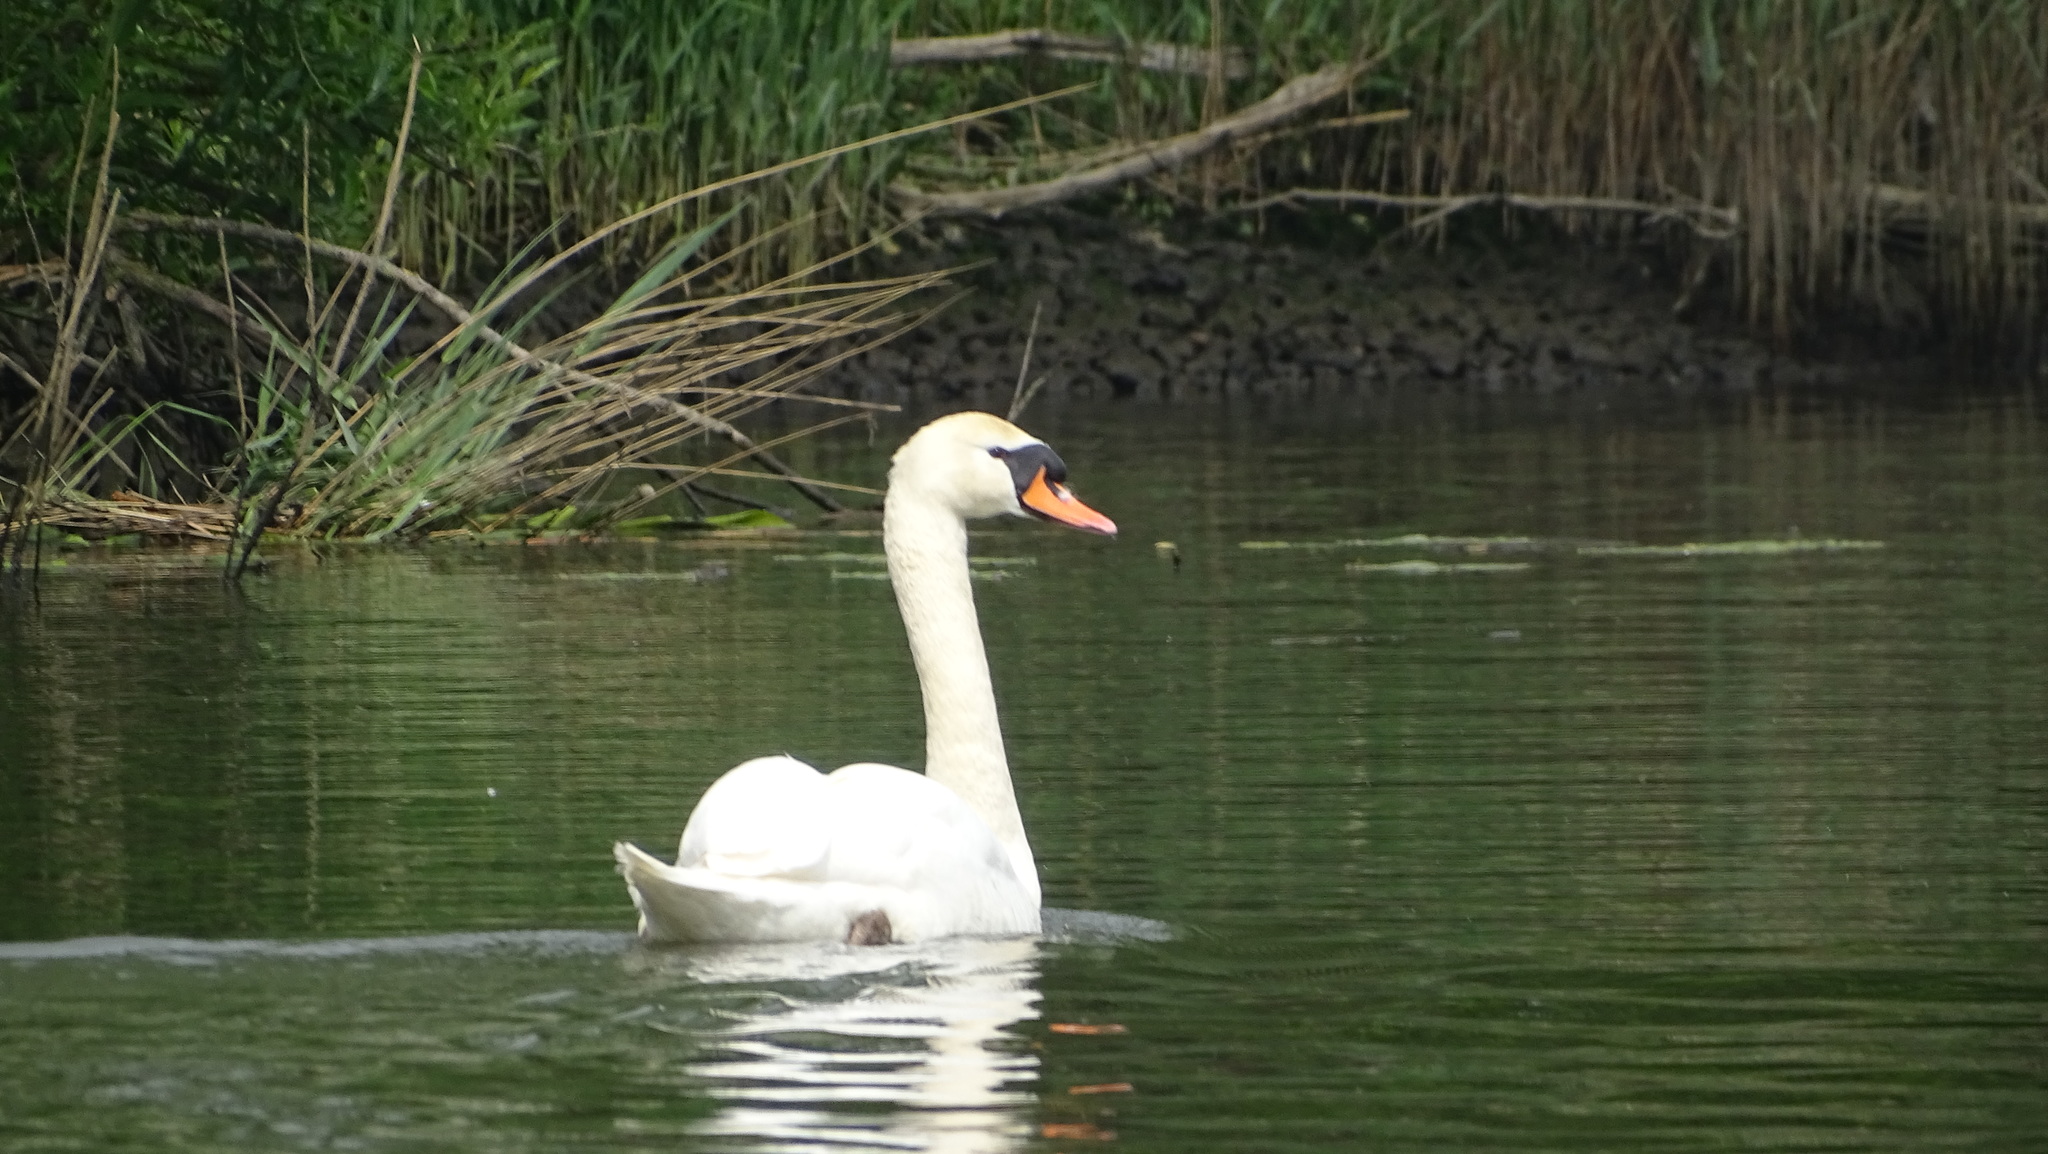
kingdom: Animalia
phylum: Chordata
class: Aves
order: Anseriformes
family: Anatidae
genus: Cygnus
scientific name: Cygnus olor
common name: Mute swan
